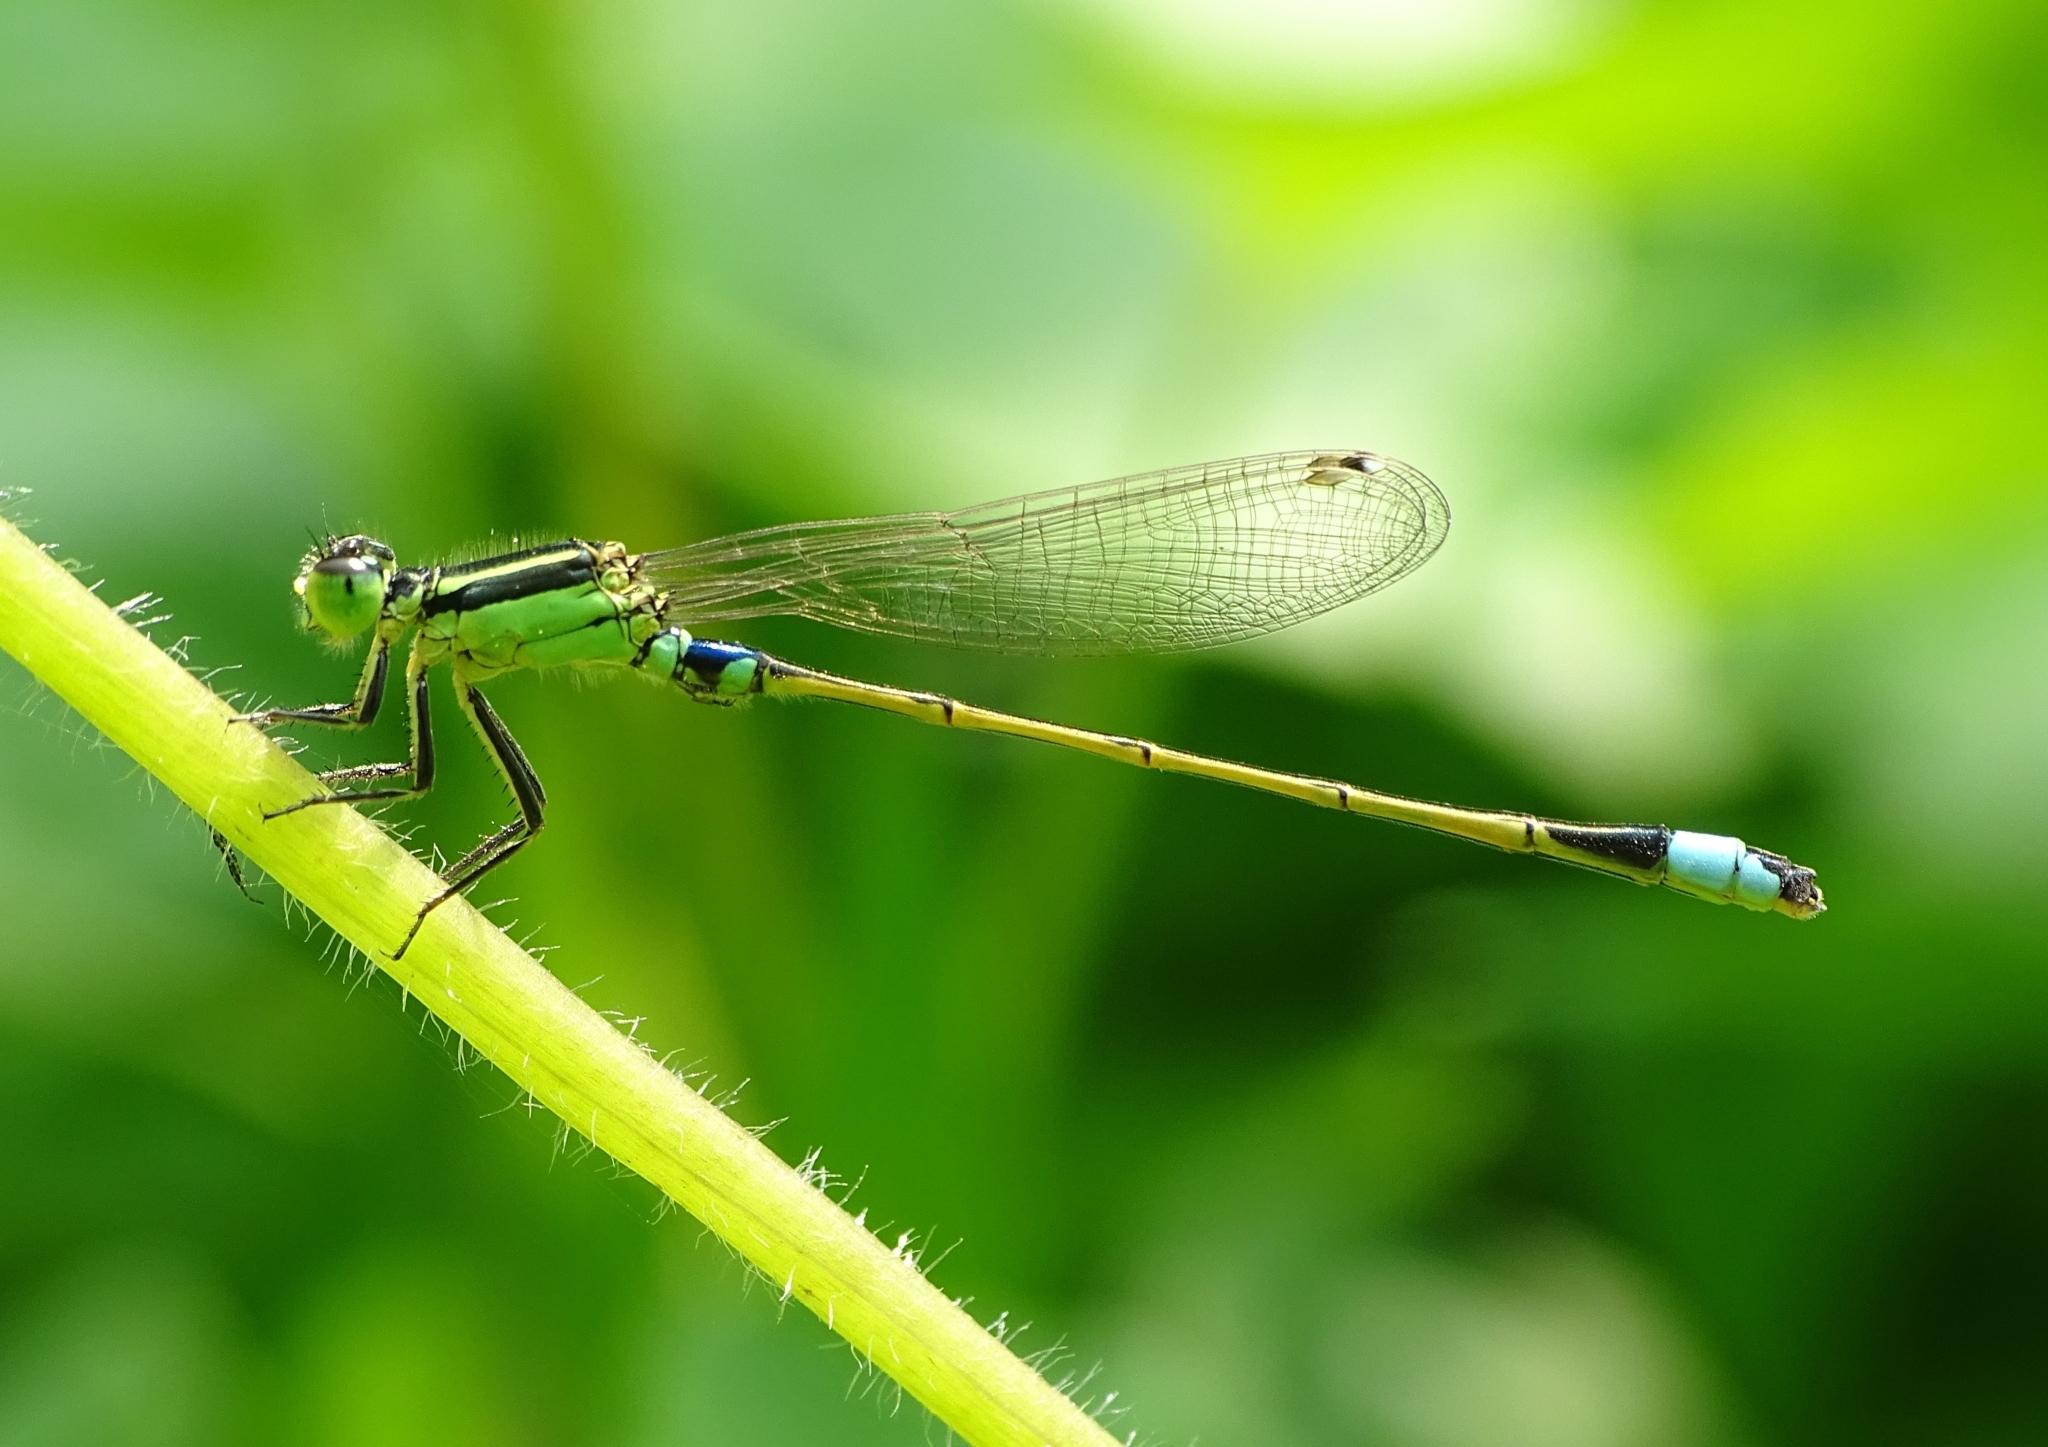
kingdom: Animalia
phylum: Arthropoda
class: Insecta
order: Odonata
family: Coenagrionidae
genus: Ischnura
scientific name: Ischnura senegalensis
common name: Tropical bluetail
